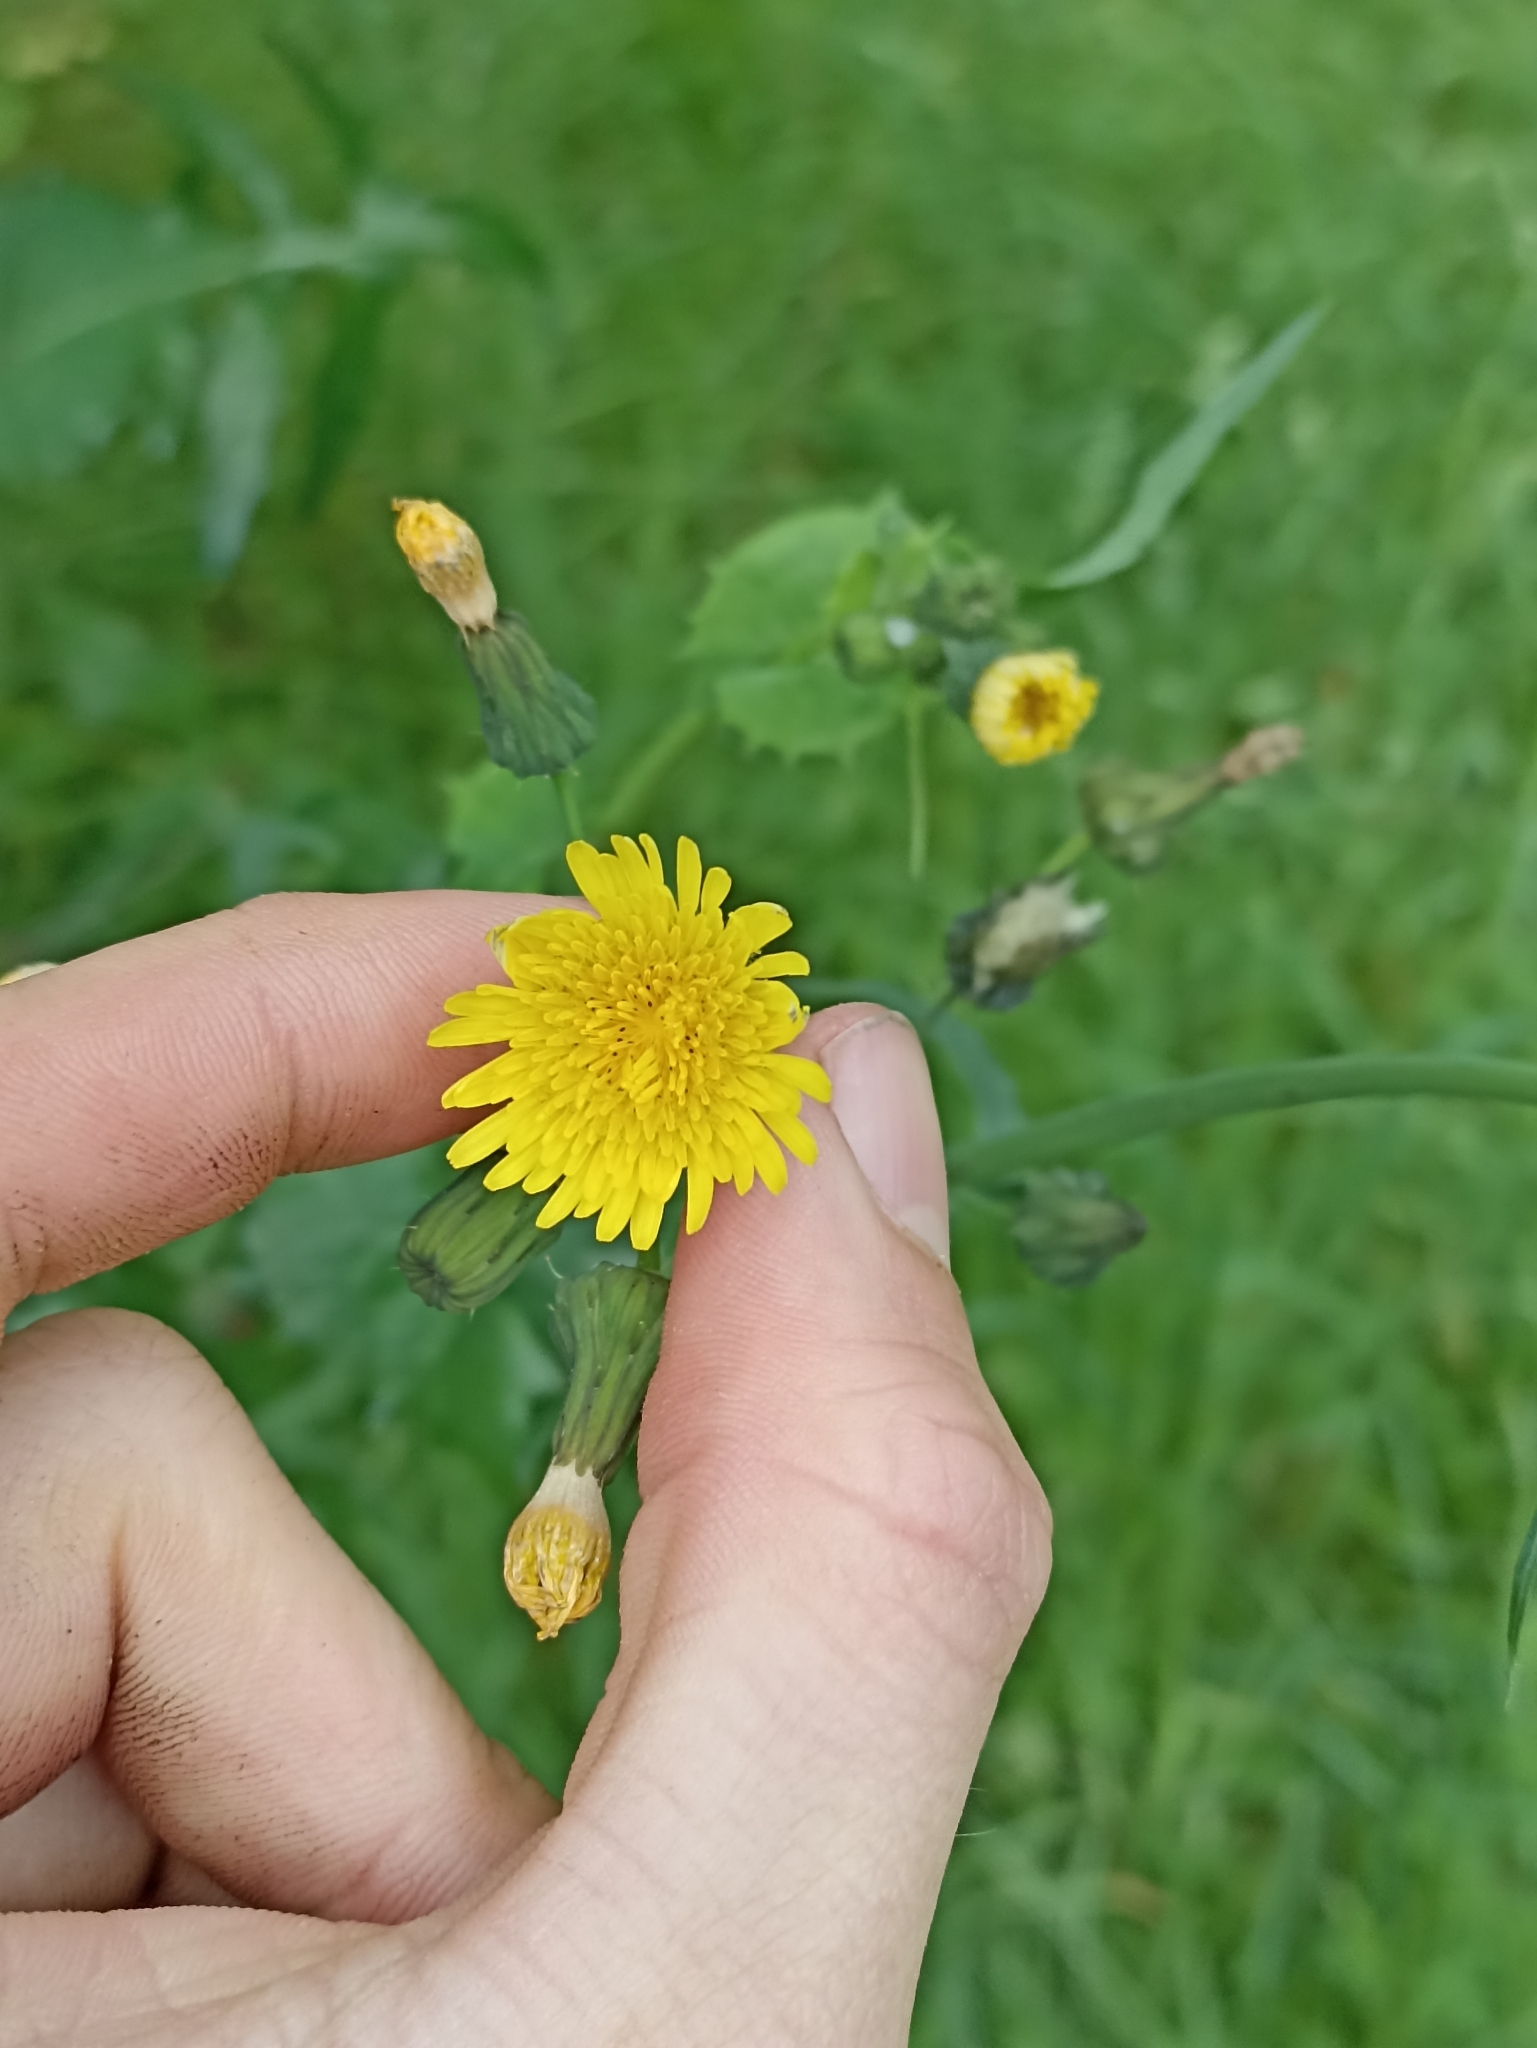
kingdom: Plantae
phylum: Tracheophyta
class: Magnoliopsida
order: Asterales
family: Asteraceae
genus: Sonchus
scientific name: Sonchus oleraceus
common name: Common sowthistle
